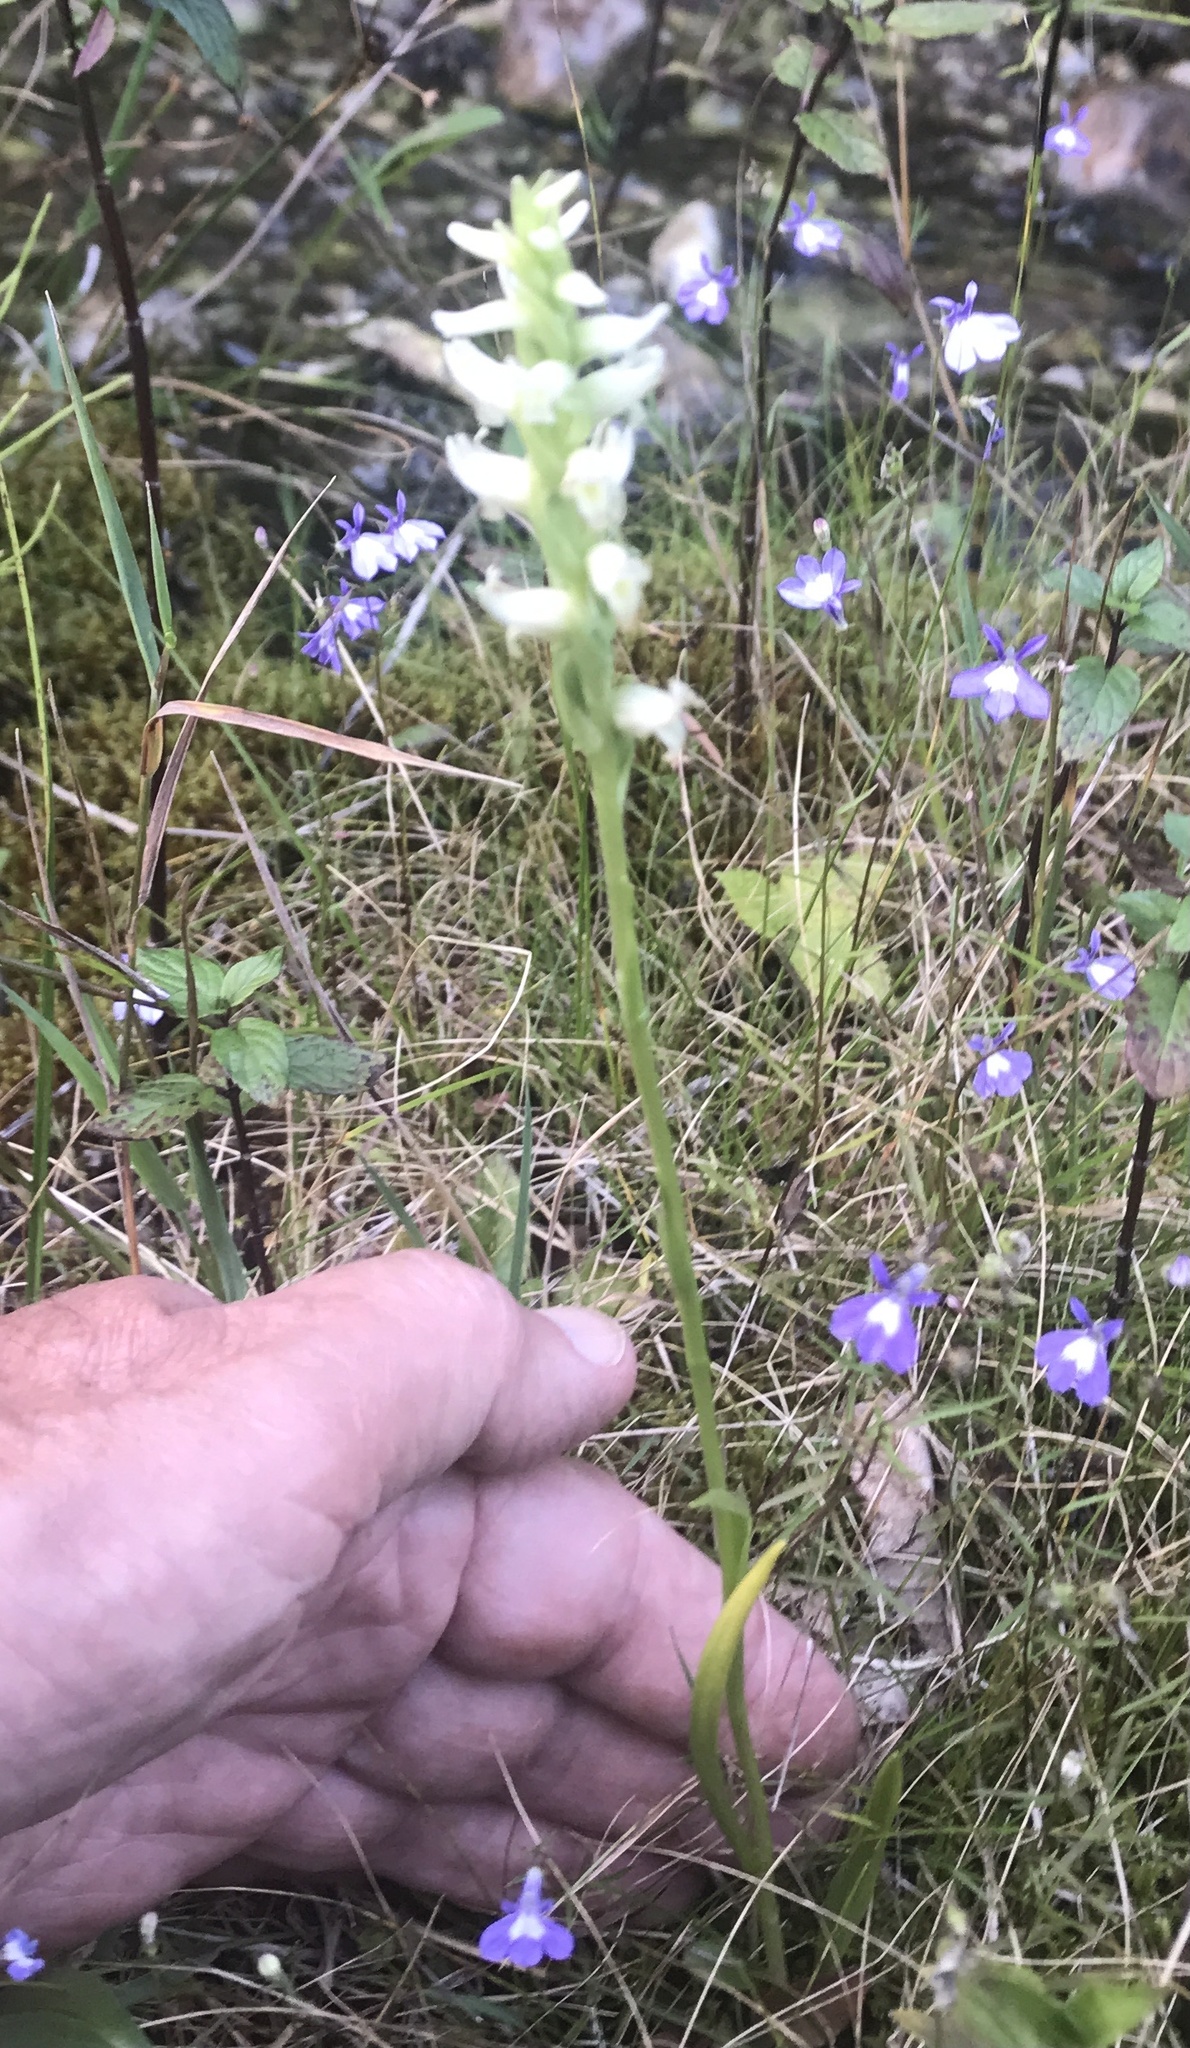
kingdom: Plantae
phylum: Tracheophyta
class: Liliopsida
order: Asparagales
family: Orchidaceae
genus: Spiranthes
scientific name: Spiranthes romanzoffiana
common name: Irish lady's-tresses
